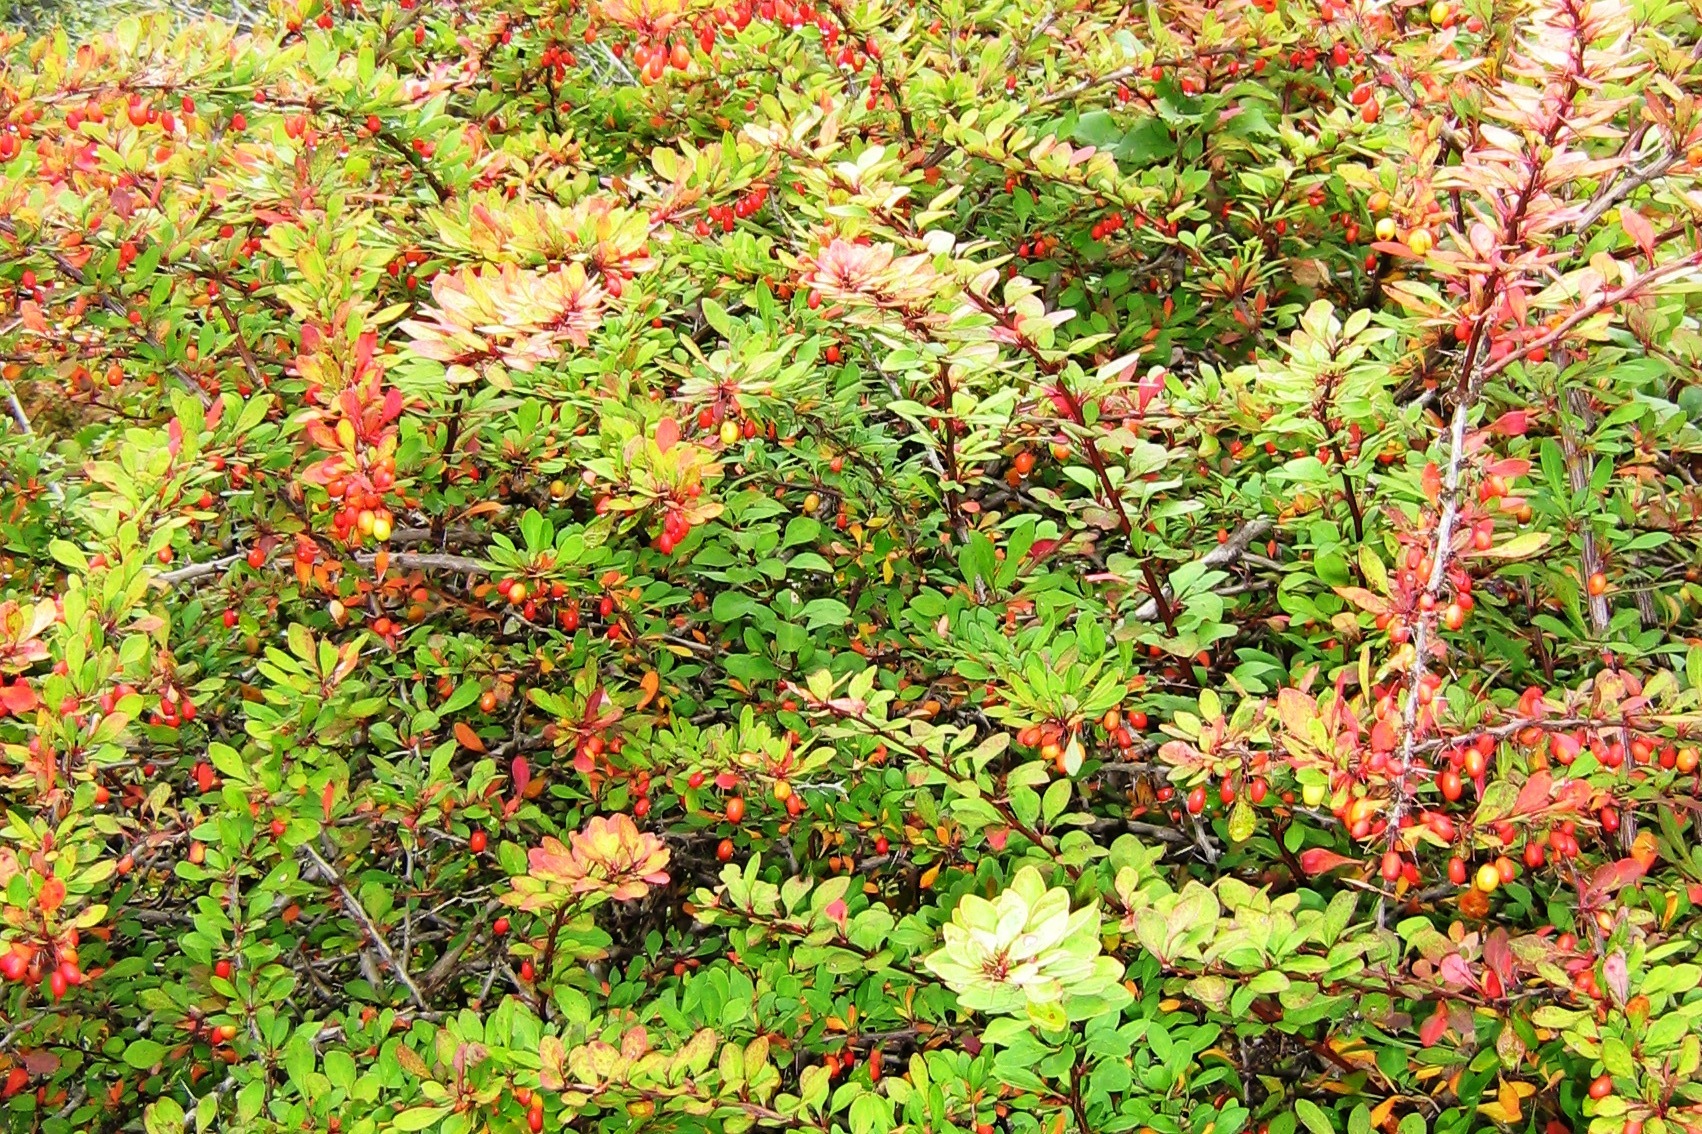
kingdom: Plantae
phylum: Tracheophyta
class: Magnoliopsida
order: Ranunculales
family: Berberidaceae
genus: Berberis
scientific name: Berberis thunbergii
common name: Japanese barberry
